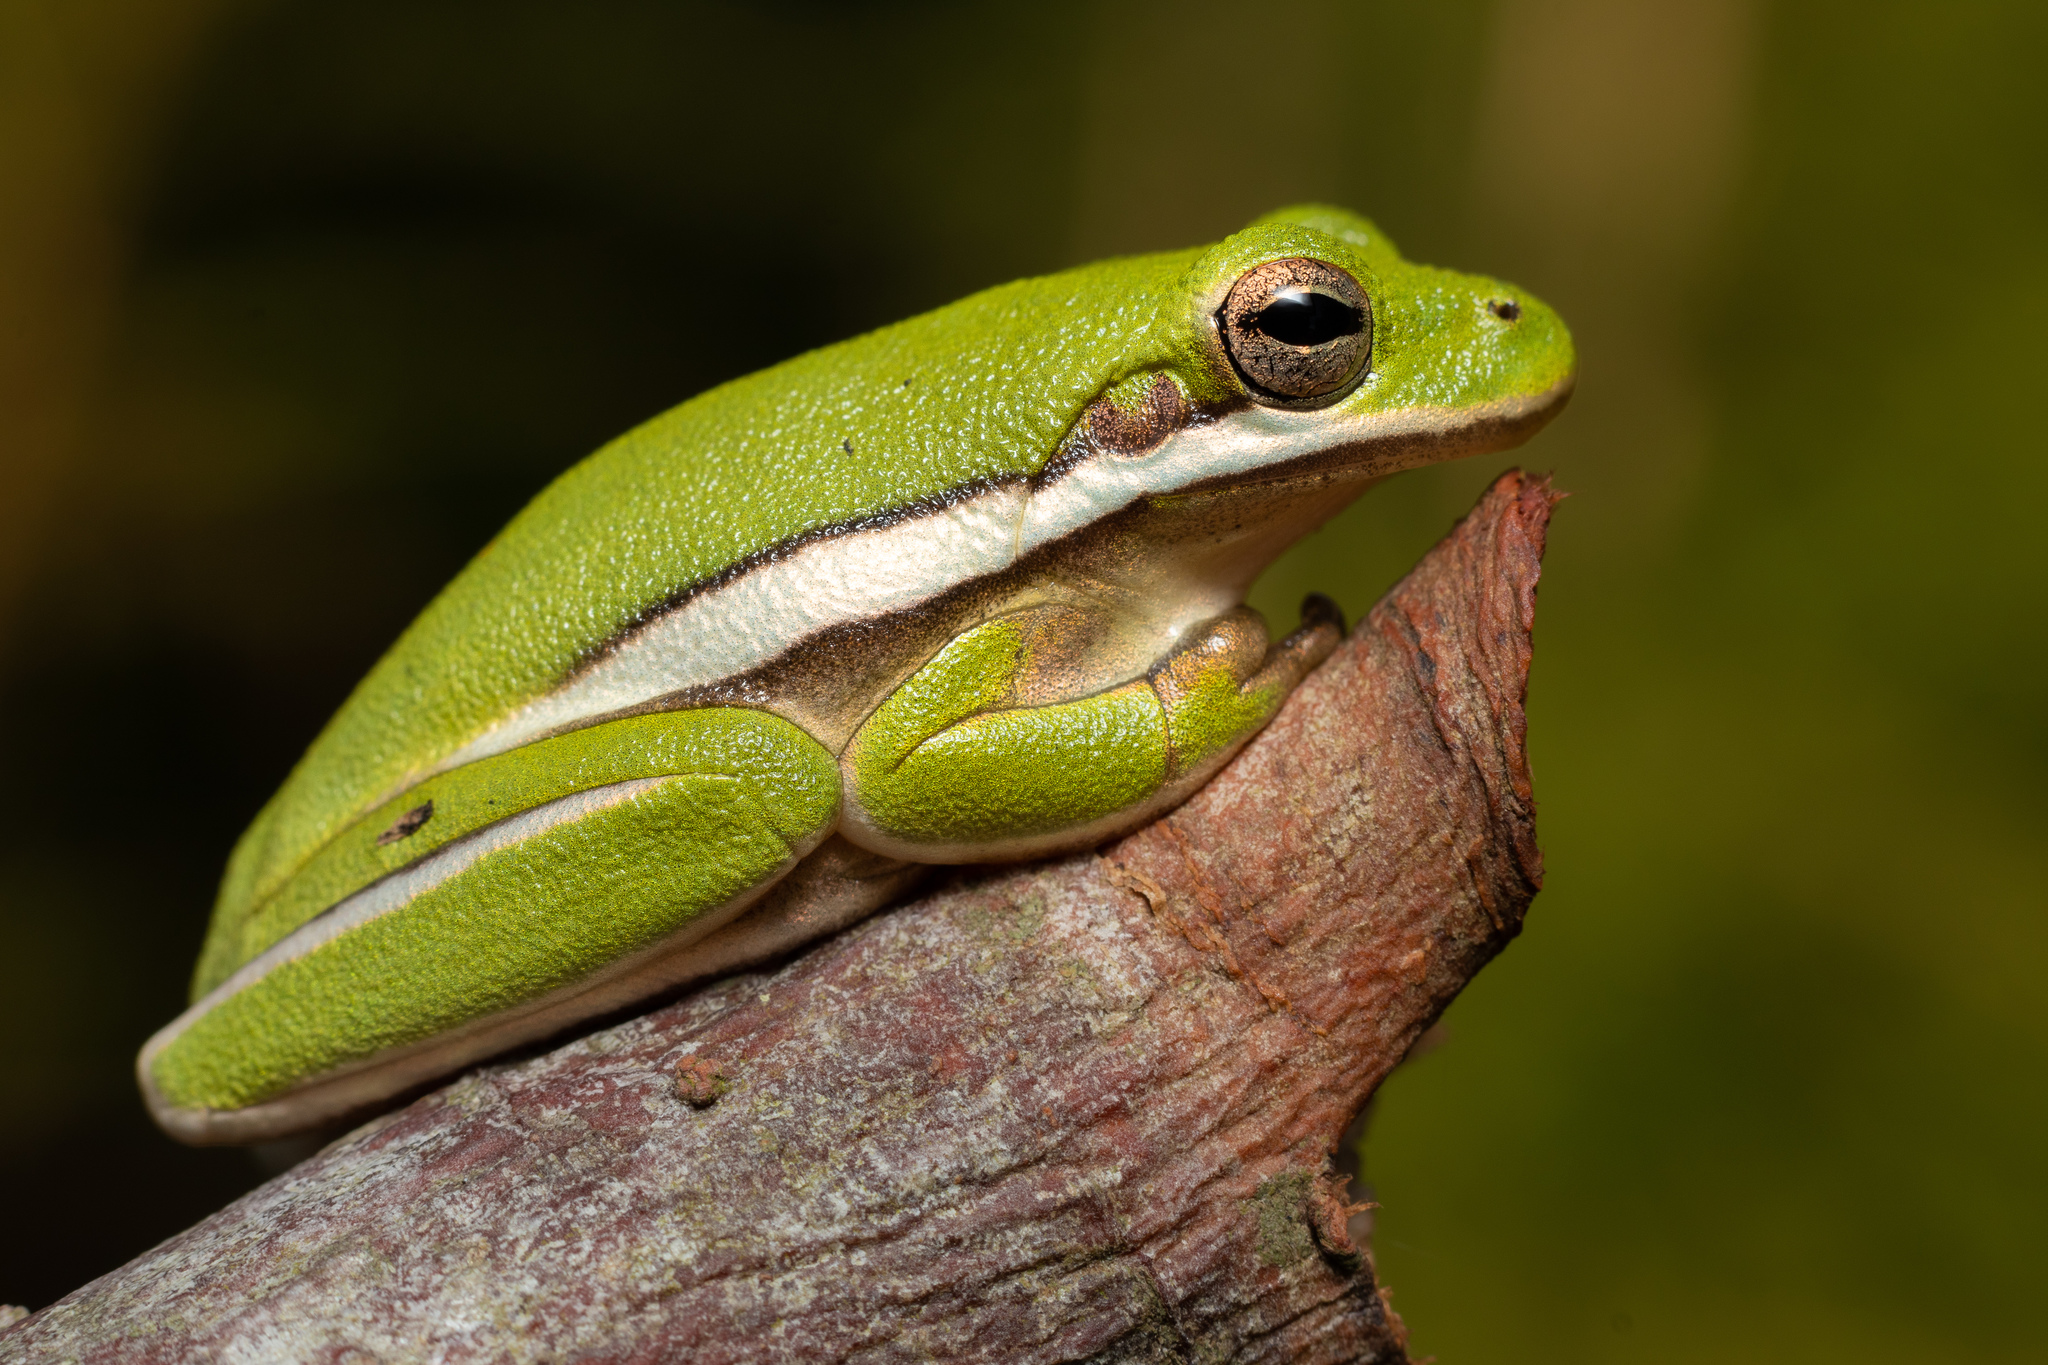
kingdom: Animalia
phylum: Chordata
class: Amphibia
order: Anura
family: Hylidae
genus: Dryophytes
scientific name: Dryophytes cinereus
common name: Green treefrog
